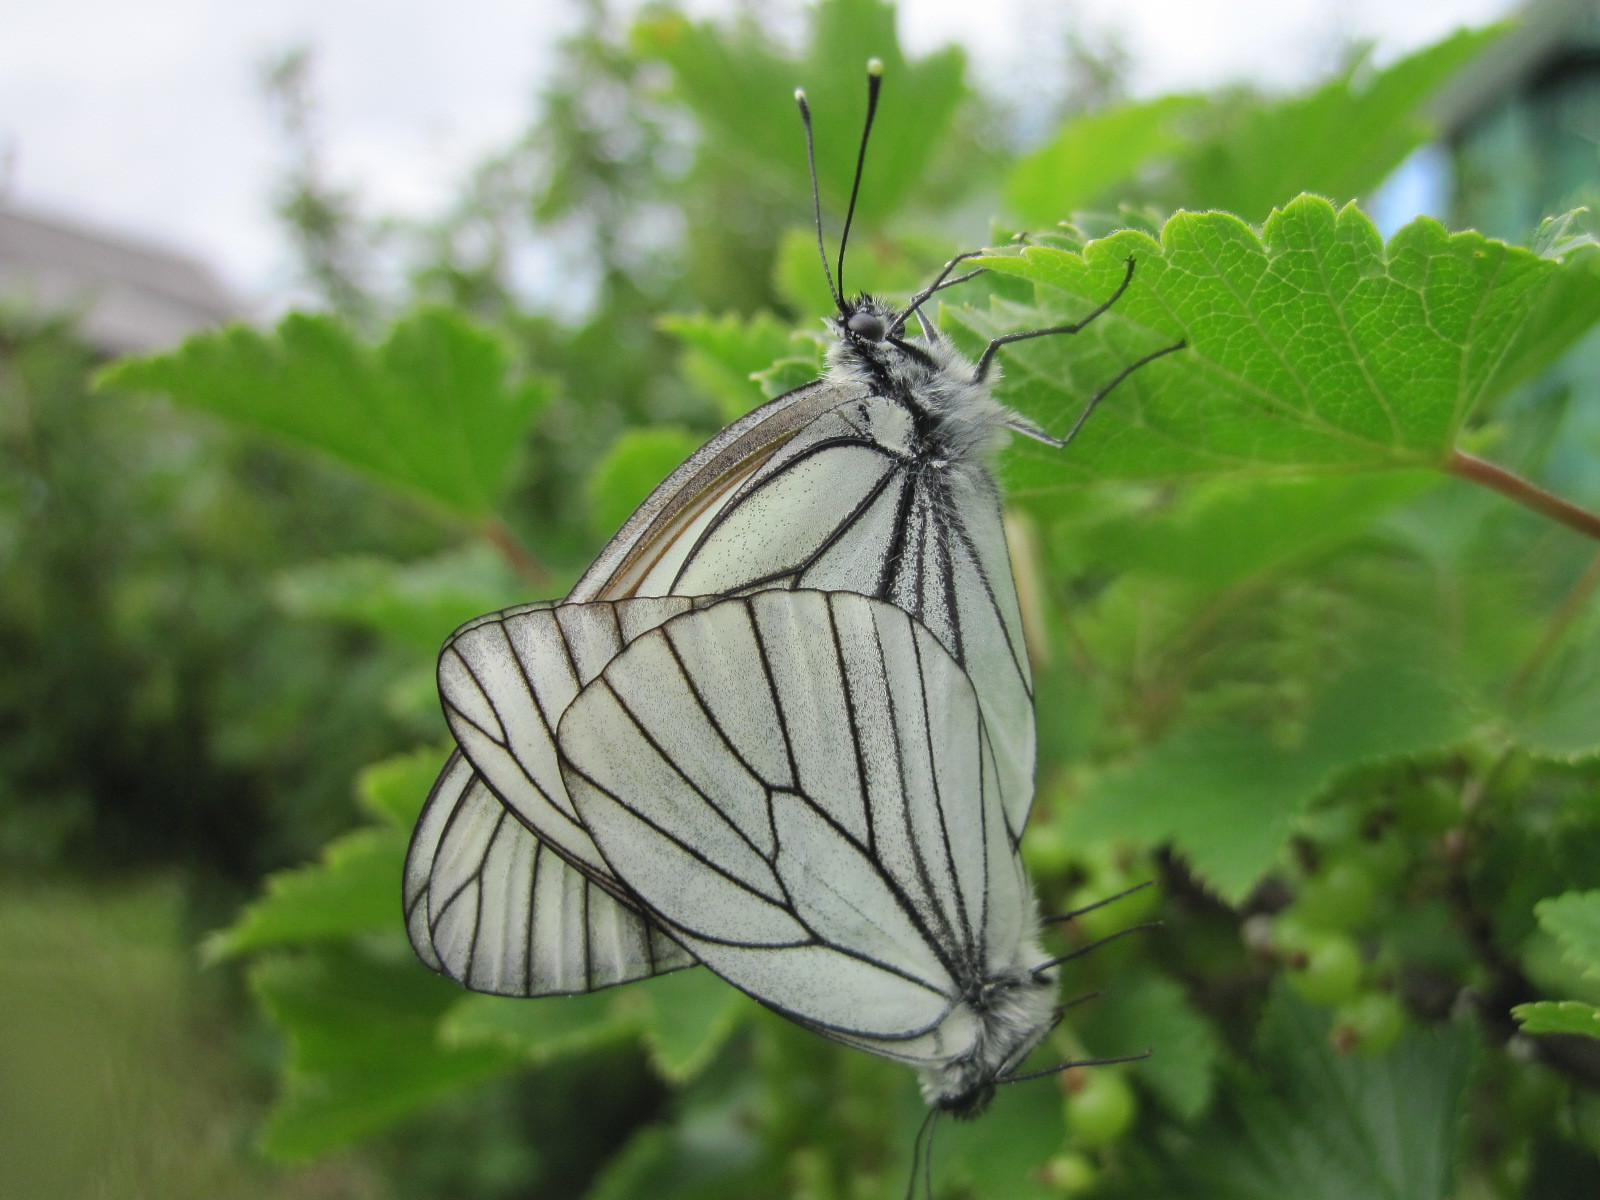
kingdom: Animalia
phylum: Arthropoda
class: Insecta
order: Lepidoptera
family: Pieridae
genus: Aporia
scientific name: Aporia crataegi
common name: Black-veined white
